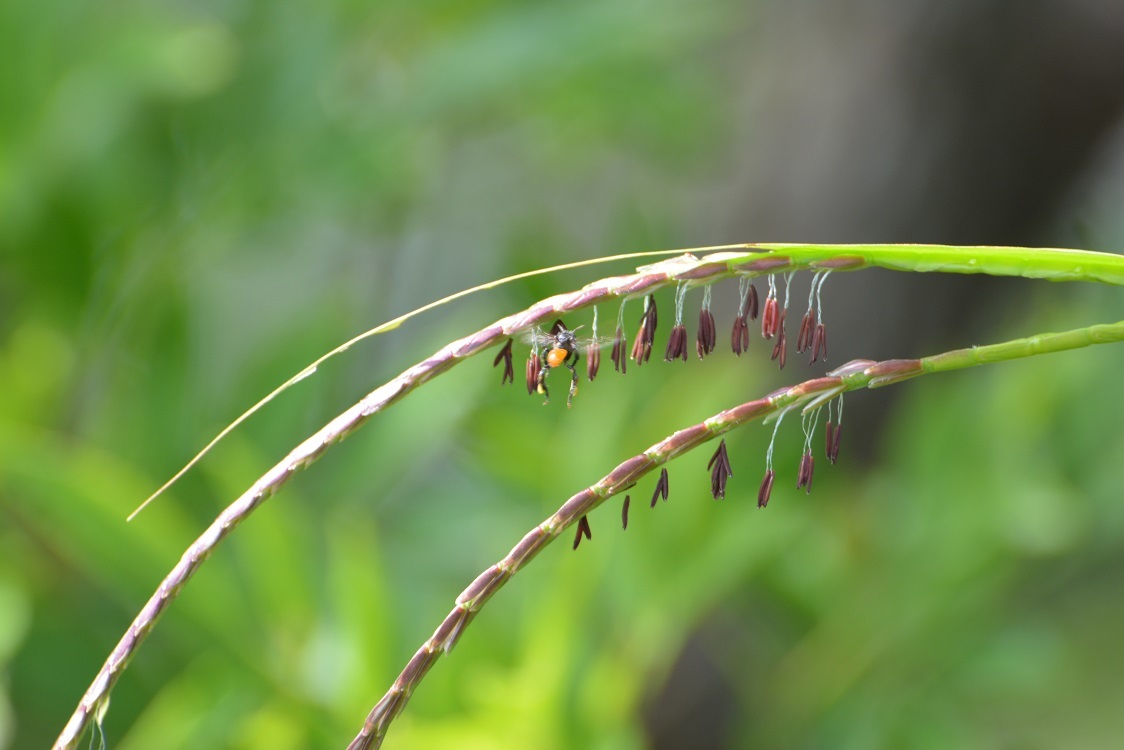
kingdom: Plantae
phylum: Tracheophyta
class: Liliopsida
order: Poales
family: Poaceae
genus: Tripsacum
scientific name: Tripsacum jalapense
